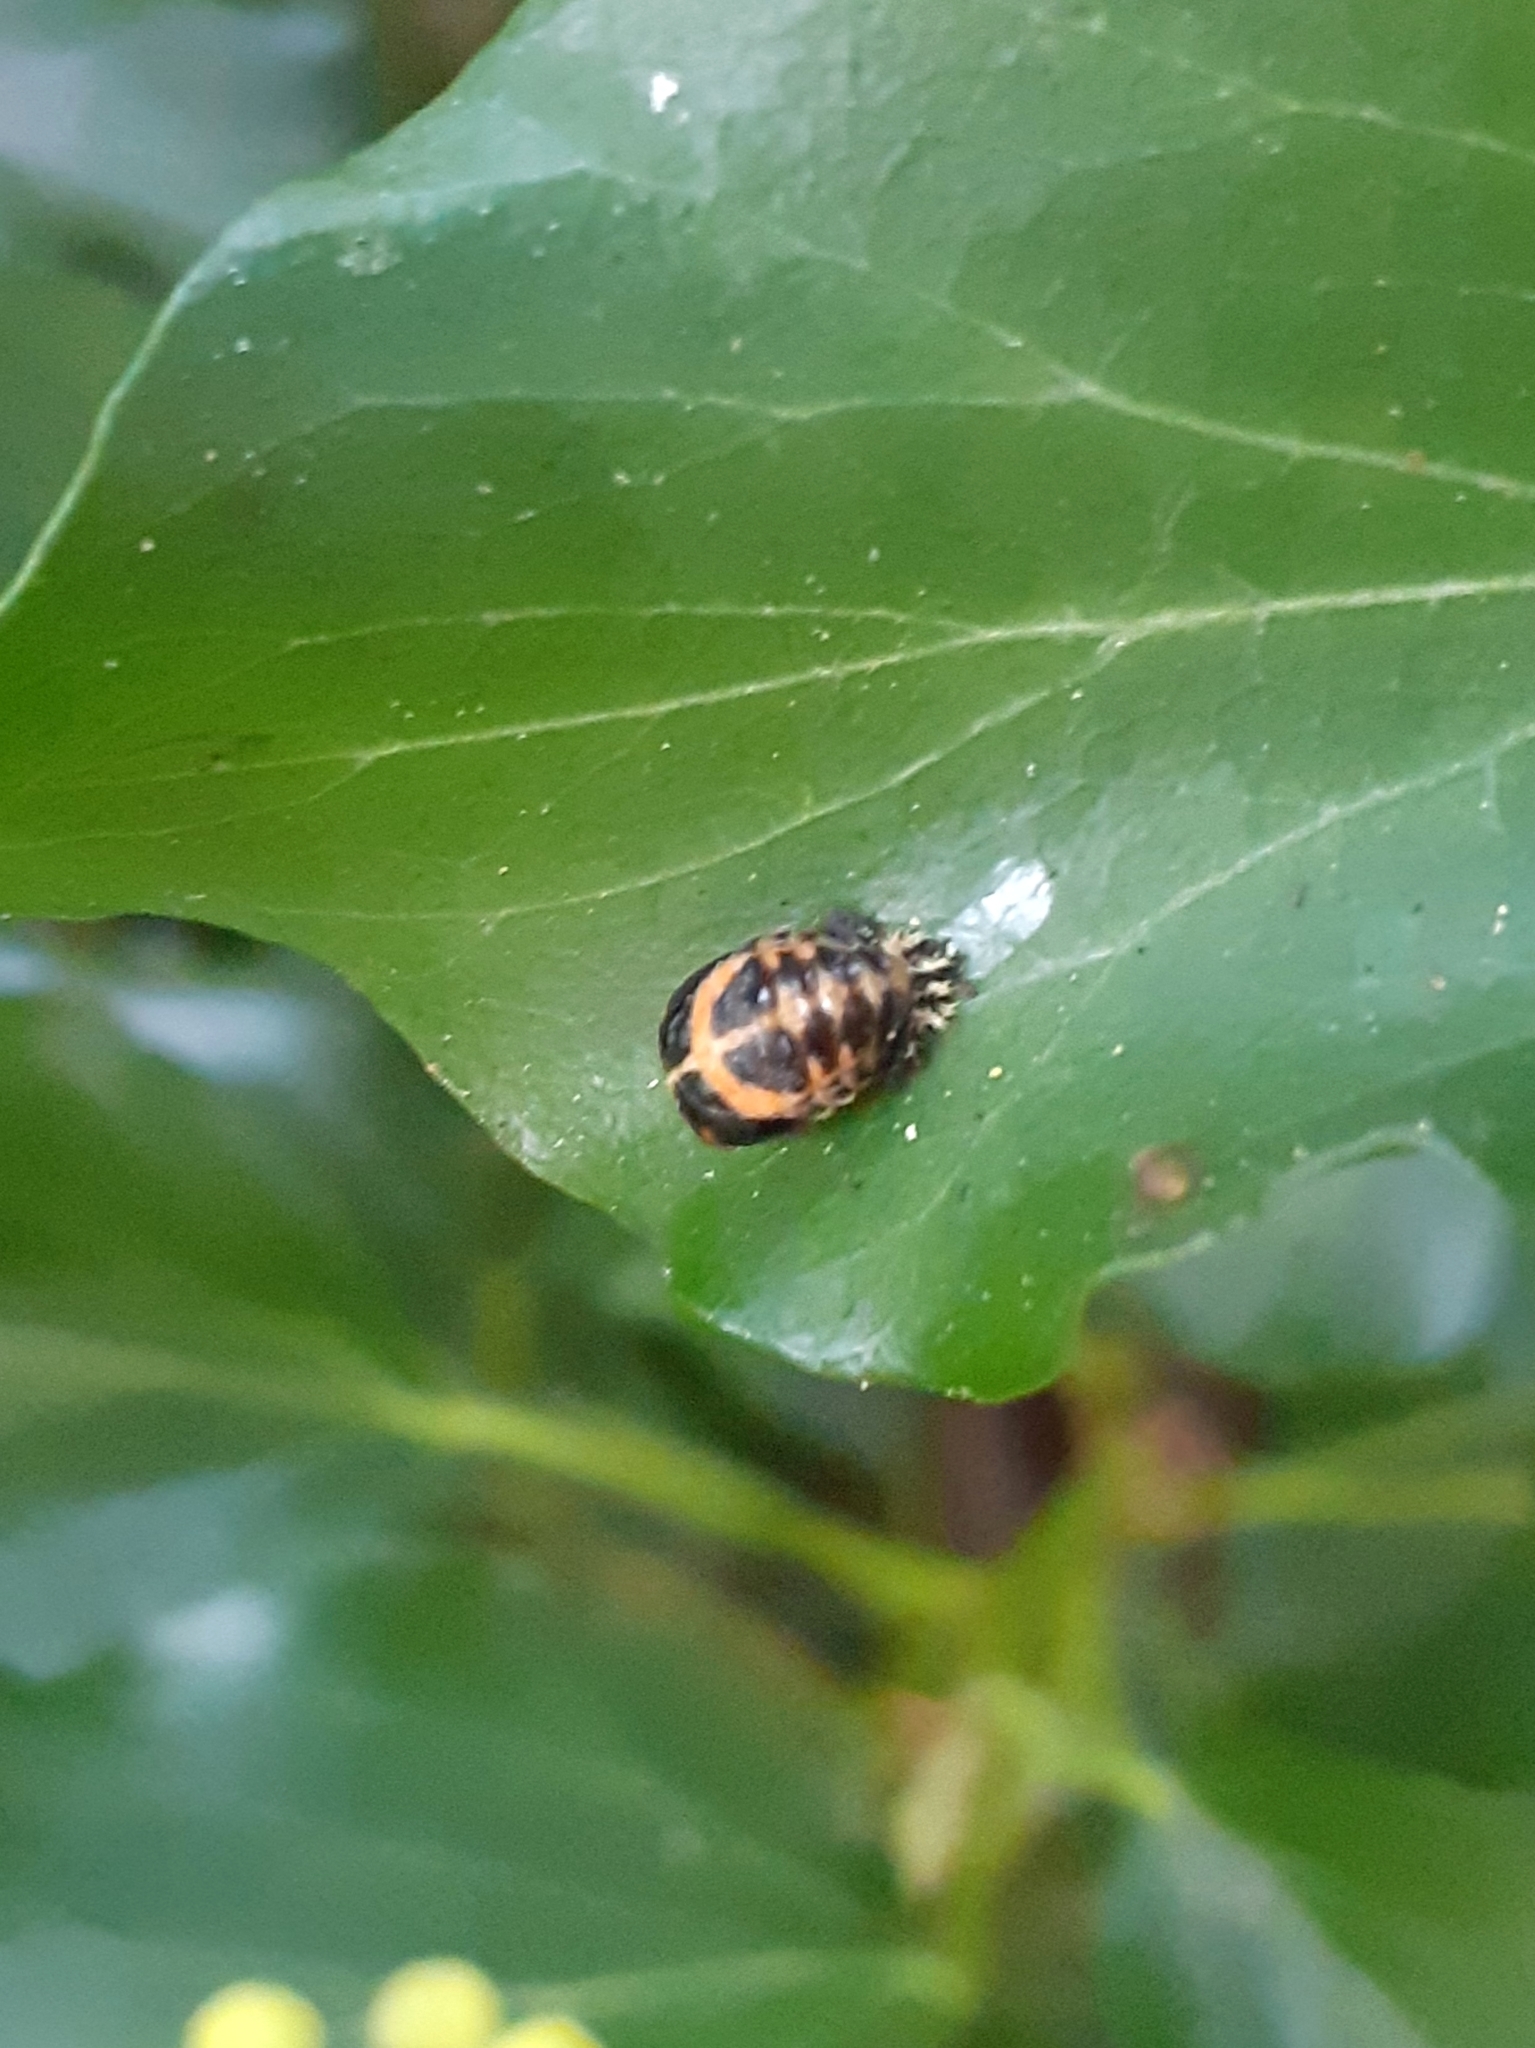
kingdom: Animalia
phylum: Arthropoda
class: Insecta
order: Coleoptera
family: Coccinellidae
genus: Harmonia
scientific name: Harmonia axyridis
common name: Harlequin ladybird
